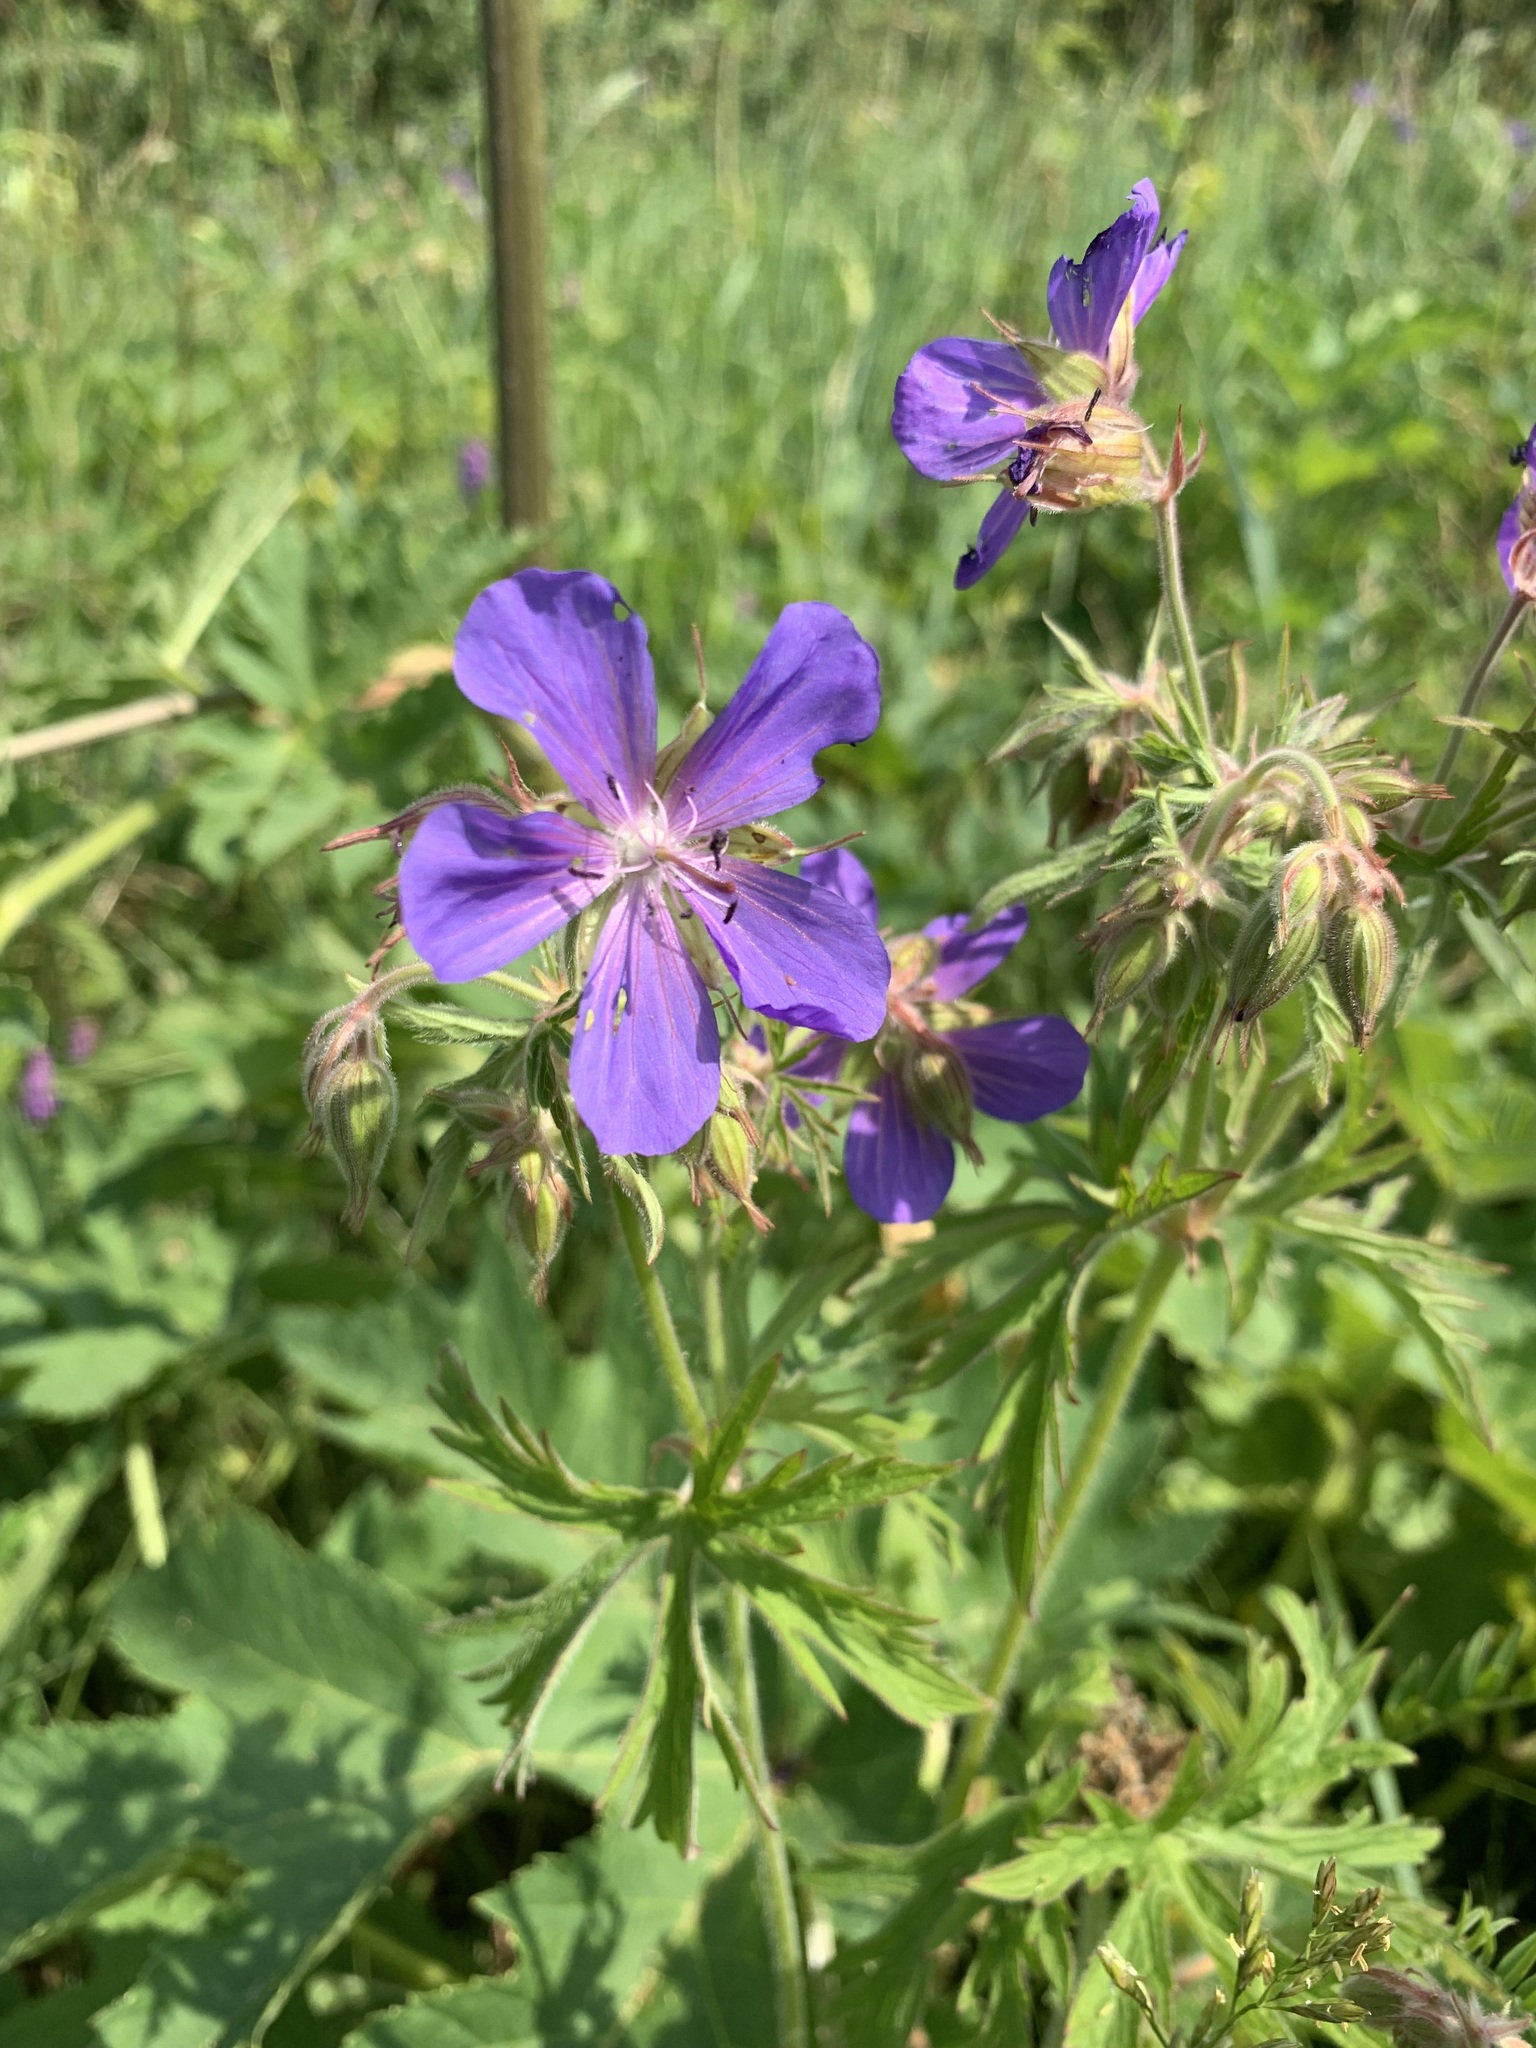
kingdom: Plantae
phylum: Tracheophyta
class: Magnoliopsida
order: Geraniales
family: Geraniaceae
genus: Geranium
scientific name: Geranium pratense
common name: Meadow crane's-bill
